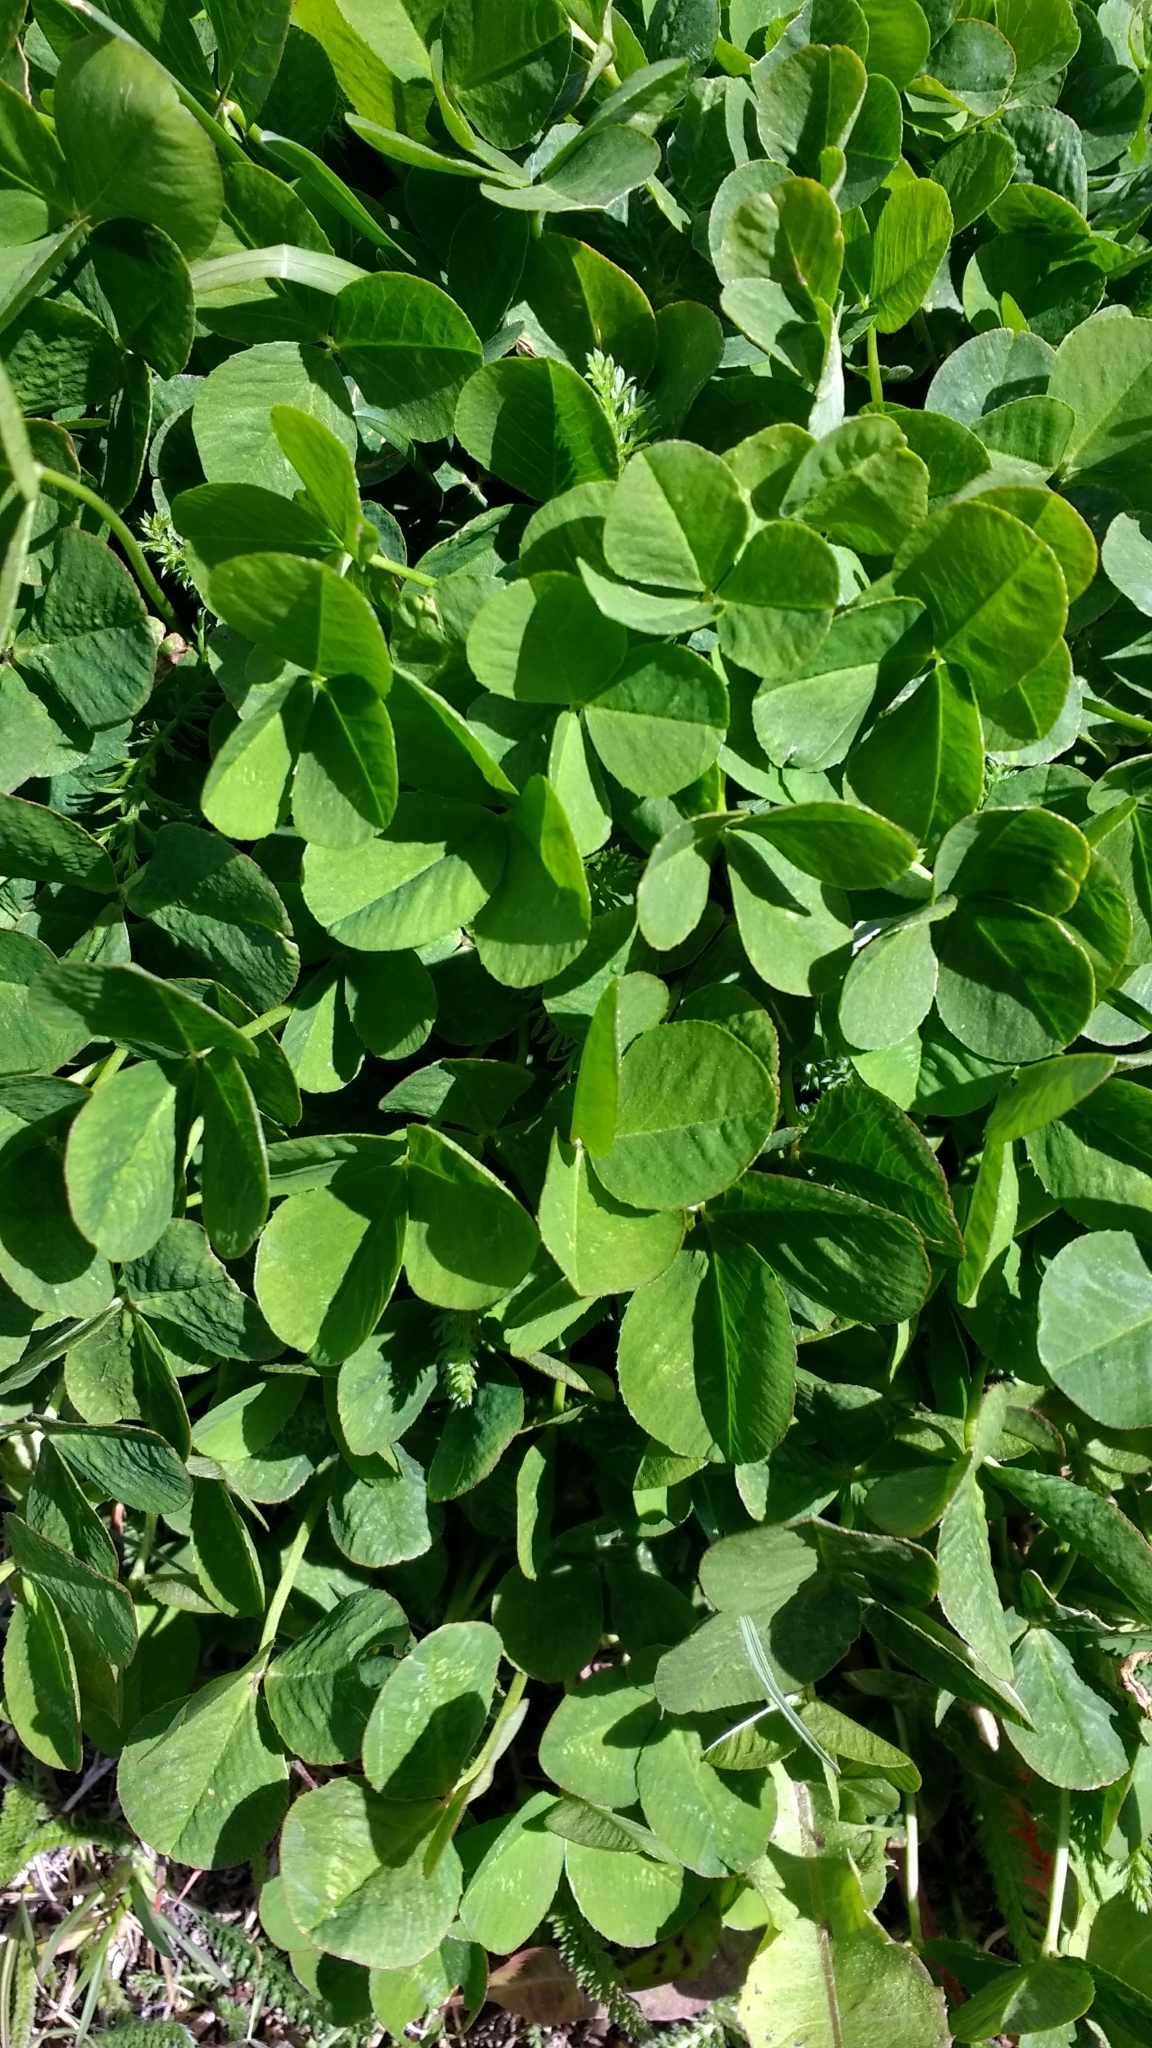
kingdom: Plantae
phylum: Tracheophyta
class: Magnoliopsida
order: Fabales
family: Fabaceae
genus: Trifolium
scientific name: Trifolium repens
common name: White clover
